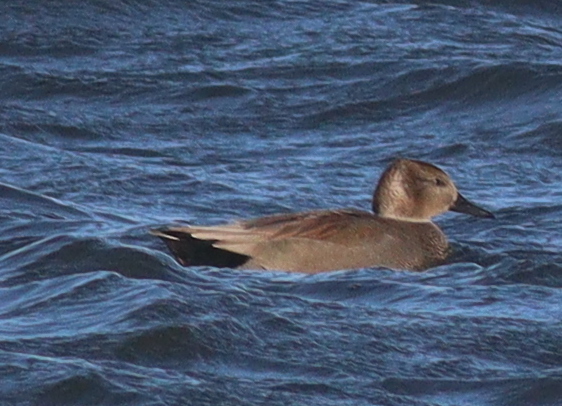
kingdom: Animalia
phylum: Chordata
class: Aves
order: Anseriformes
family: Anatidae
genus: Mareca
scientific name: Mareca strepera
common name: Gadwall
